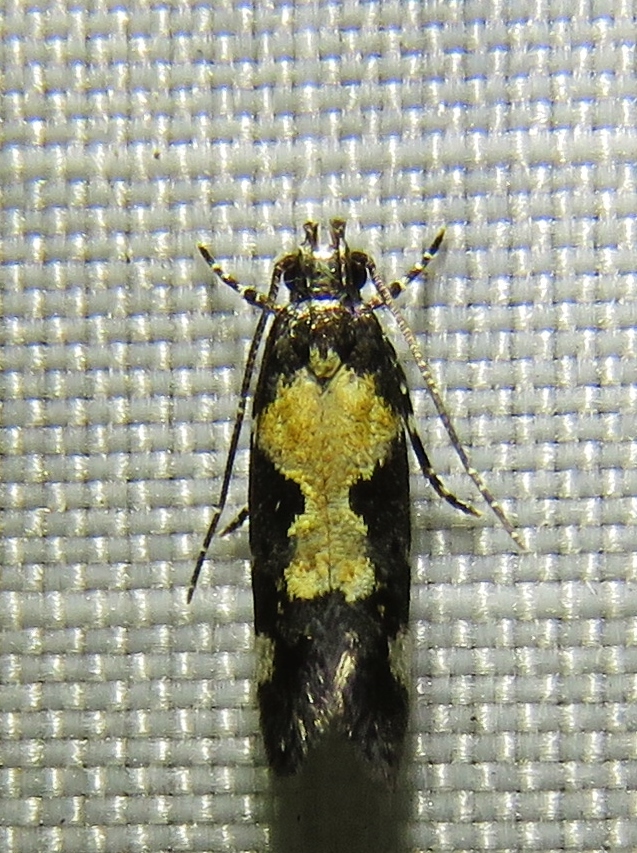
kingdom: Animalia
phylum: Arthropoda
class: Insecta
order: Lepidoptera
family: Gelechiidae
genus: Stegasta
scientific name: Stegasta bosqueella
